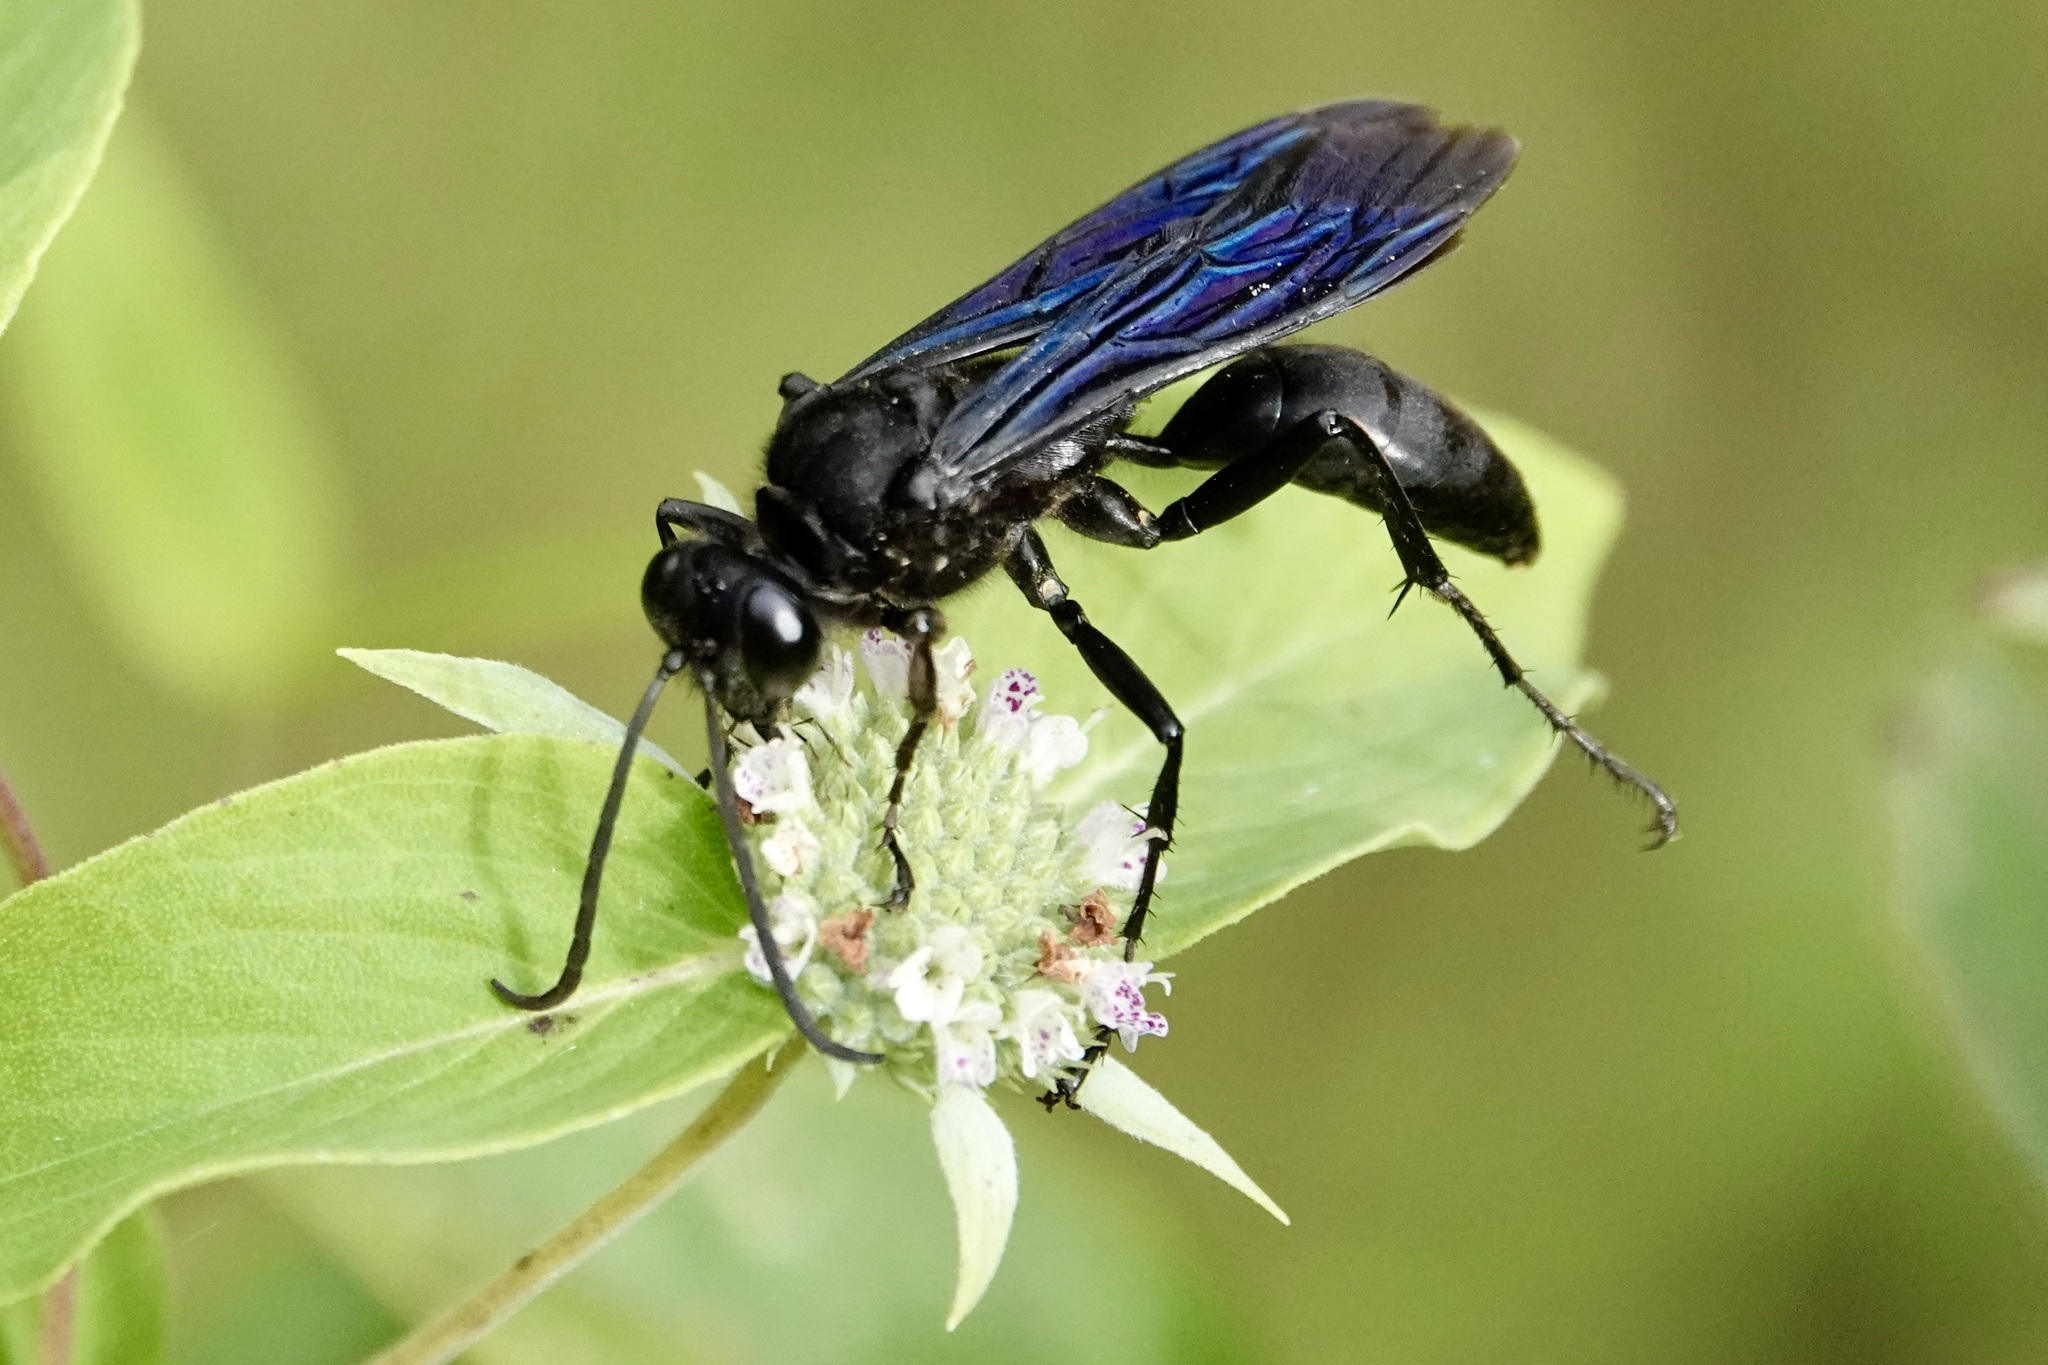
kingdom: Animalia
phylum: Arthropoda
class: Insecta
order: Hymenoptera
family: Sphecidae
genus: Sphex
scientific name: Sphex pensylvanicus
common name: Great black digger wasp
